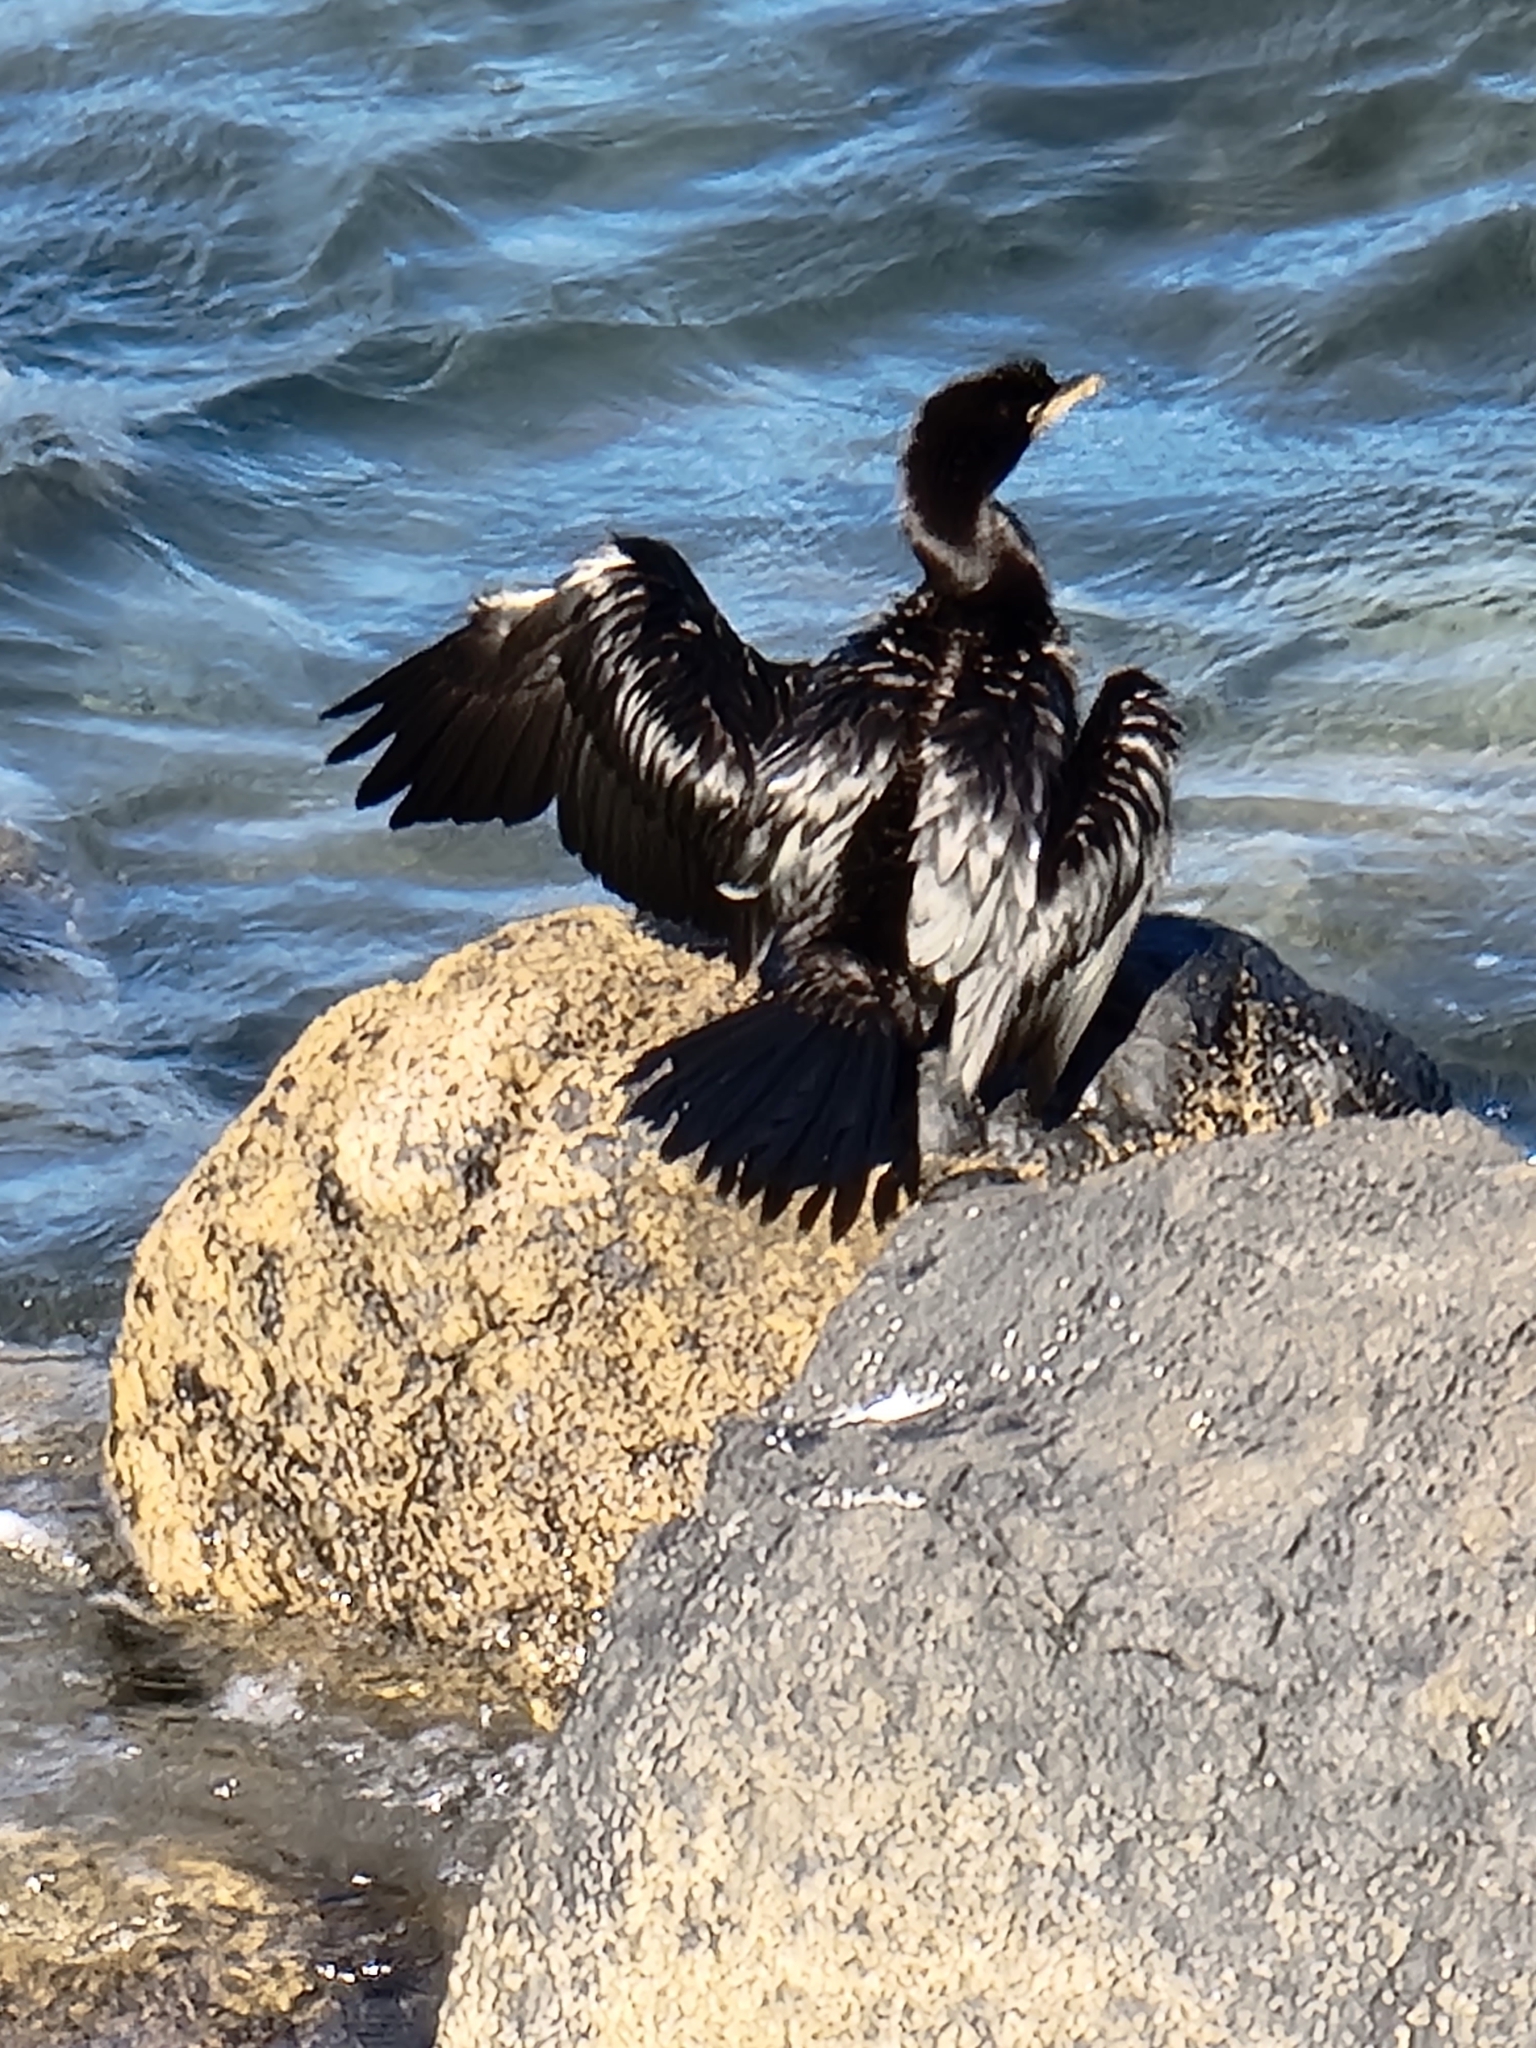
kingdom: Animalia
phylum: Chordata
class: Aves
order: Suliformes
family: Phalacrocoracidae
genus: Microcarbo
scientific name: Microcarbo melanoleucos
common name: Little pied cormorant
